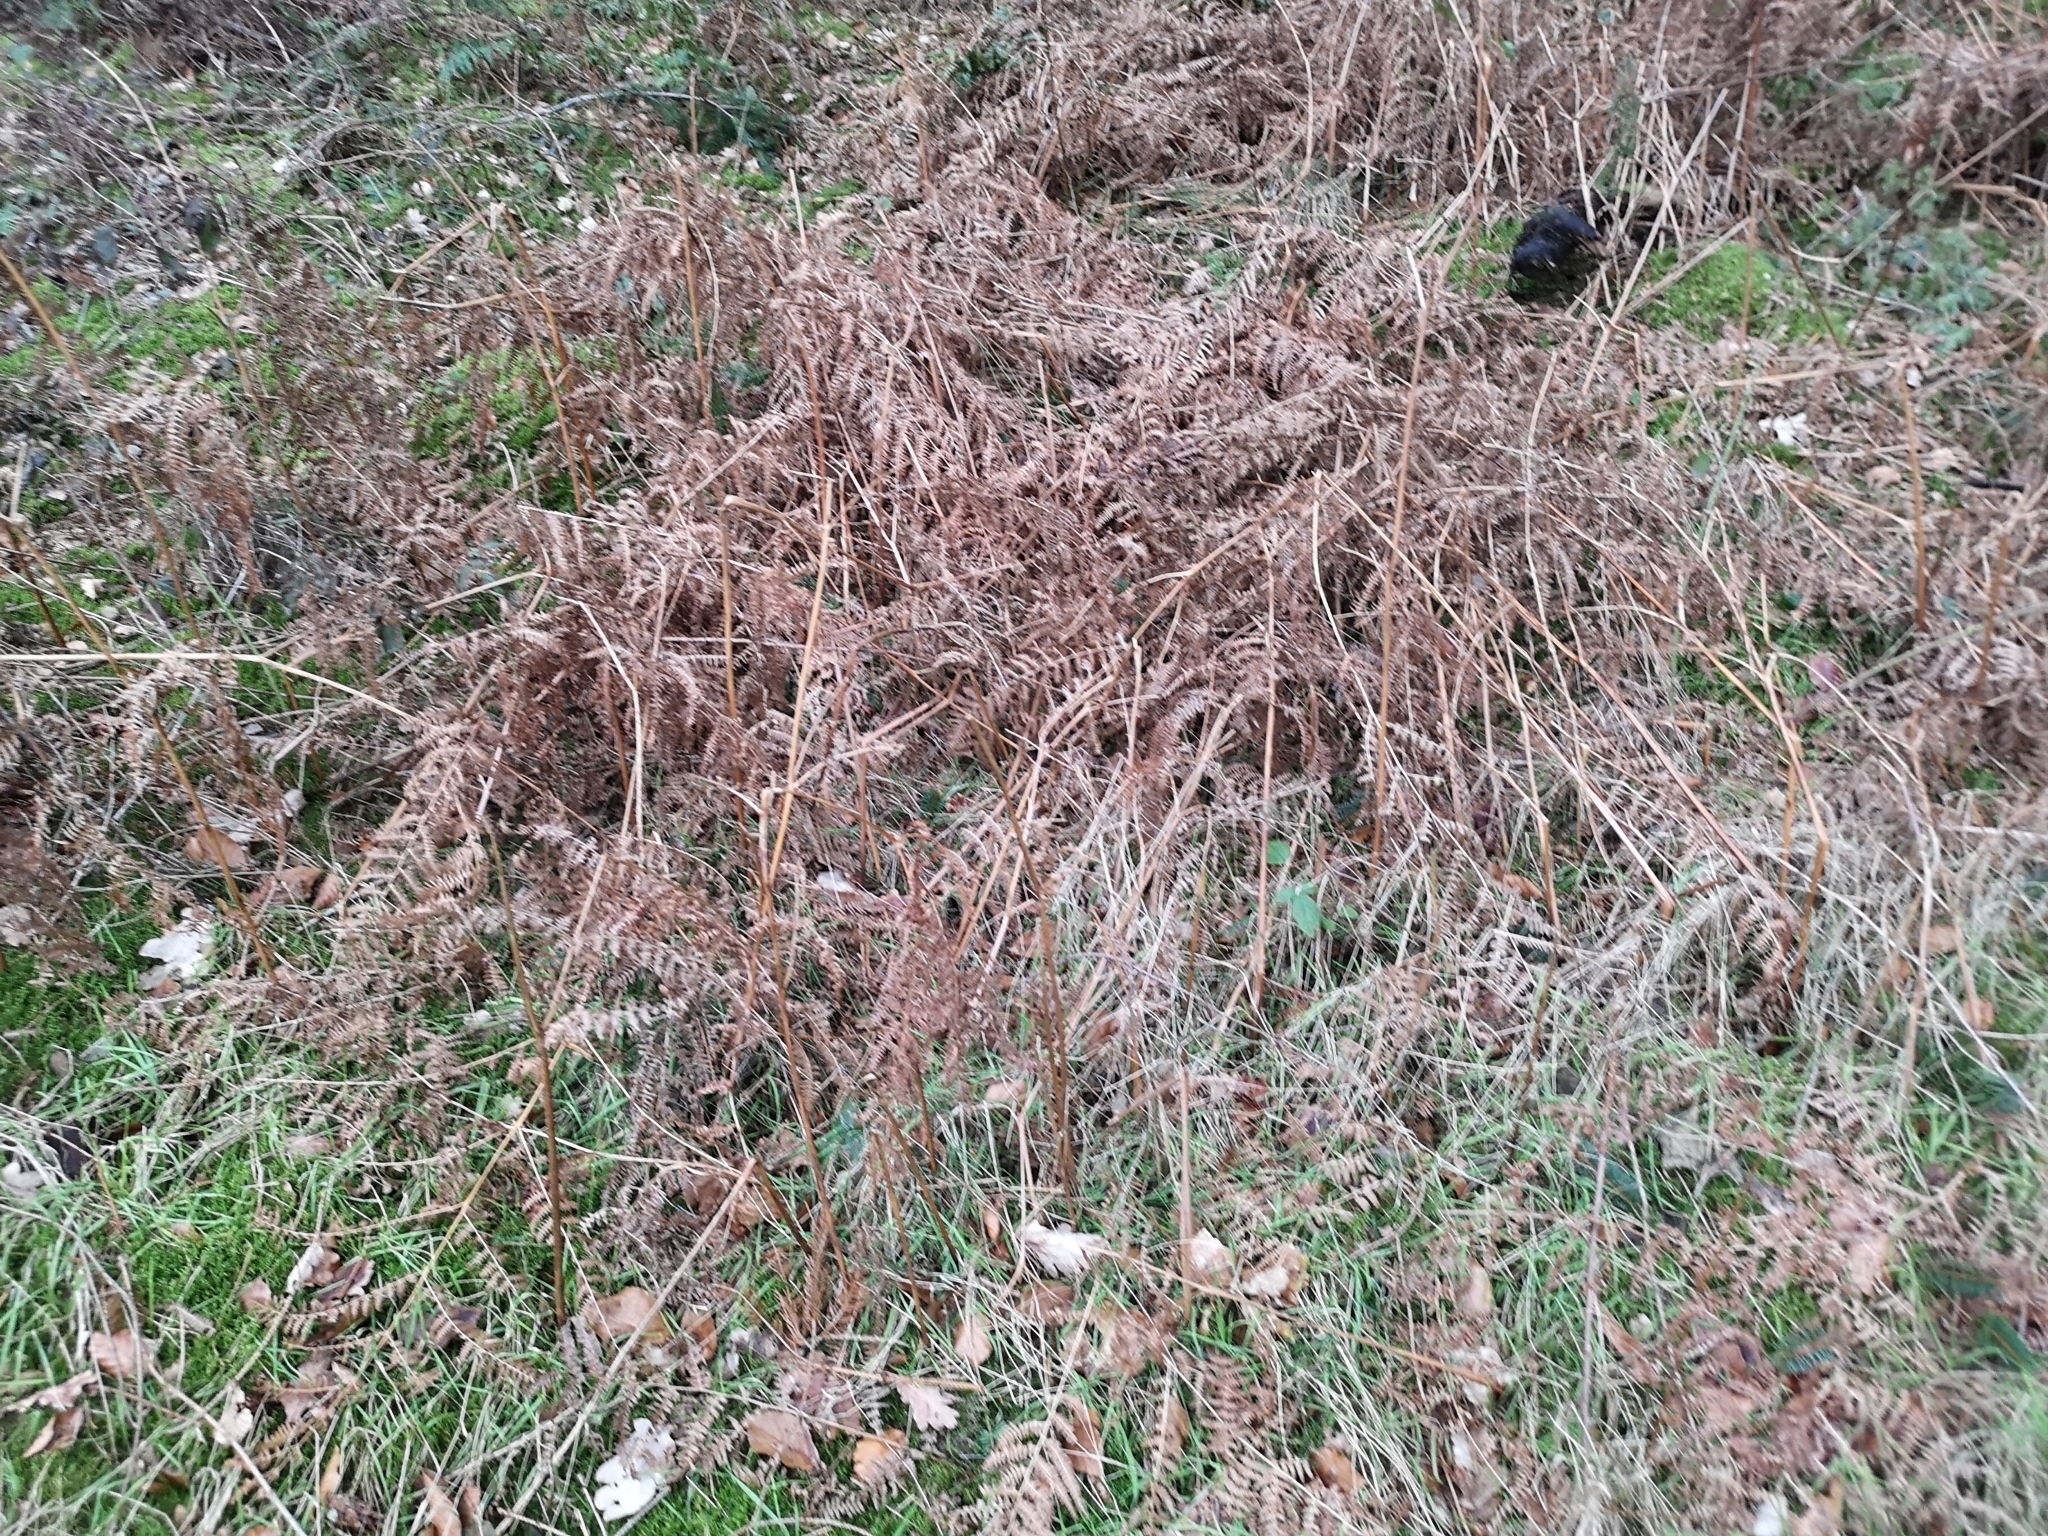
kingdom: Plantae
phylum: Tracheophyta
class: Polypodiopsida
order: Polypodiales
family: Dennstaedtiaceae
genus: Pteridium
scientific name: Pteridium aquilinum
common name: Bracken
